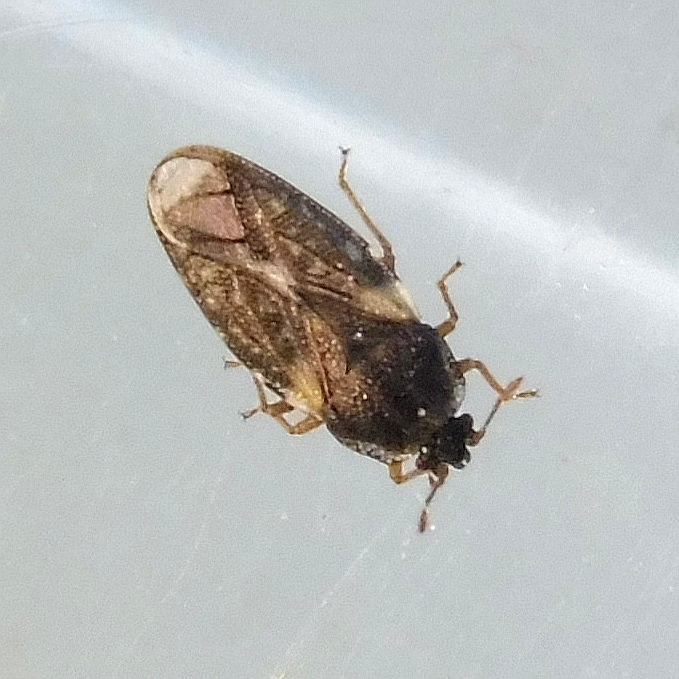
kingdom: Animalia
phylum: Arthropoda
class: Insecta
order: Hemiptera
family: Piesmatidae
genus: Piesma
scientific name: Piesma maculata
